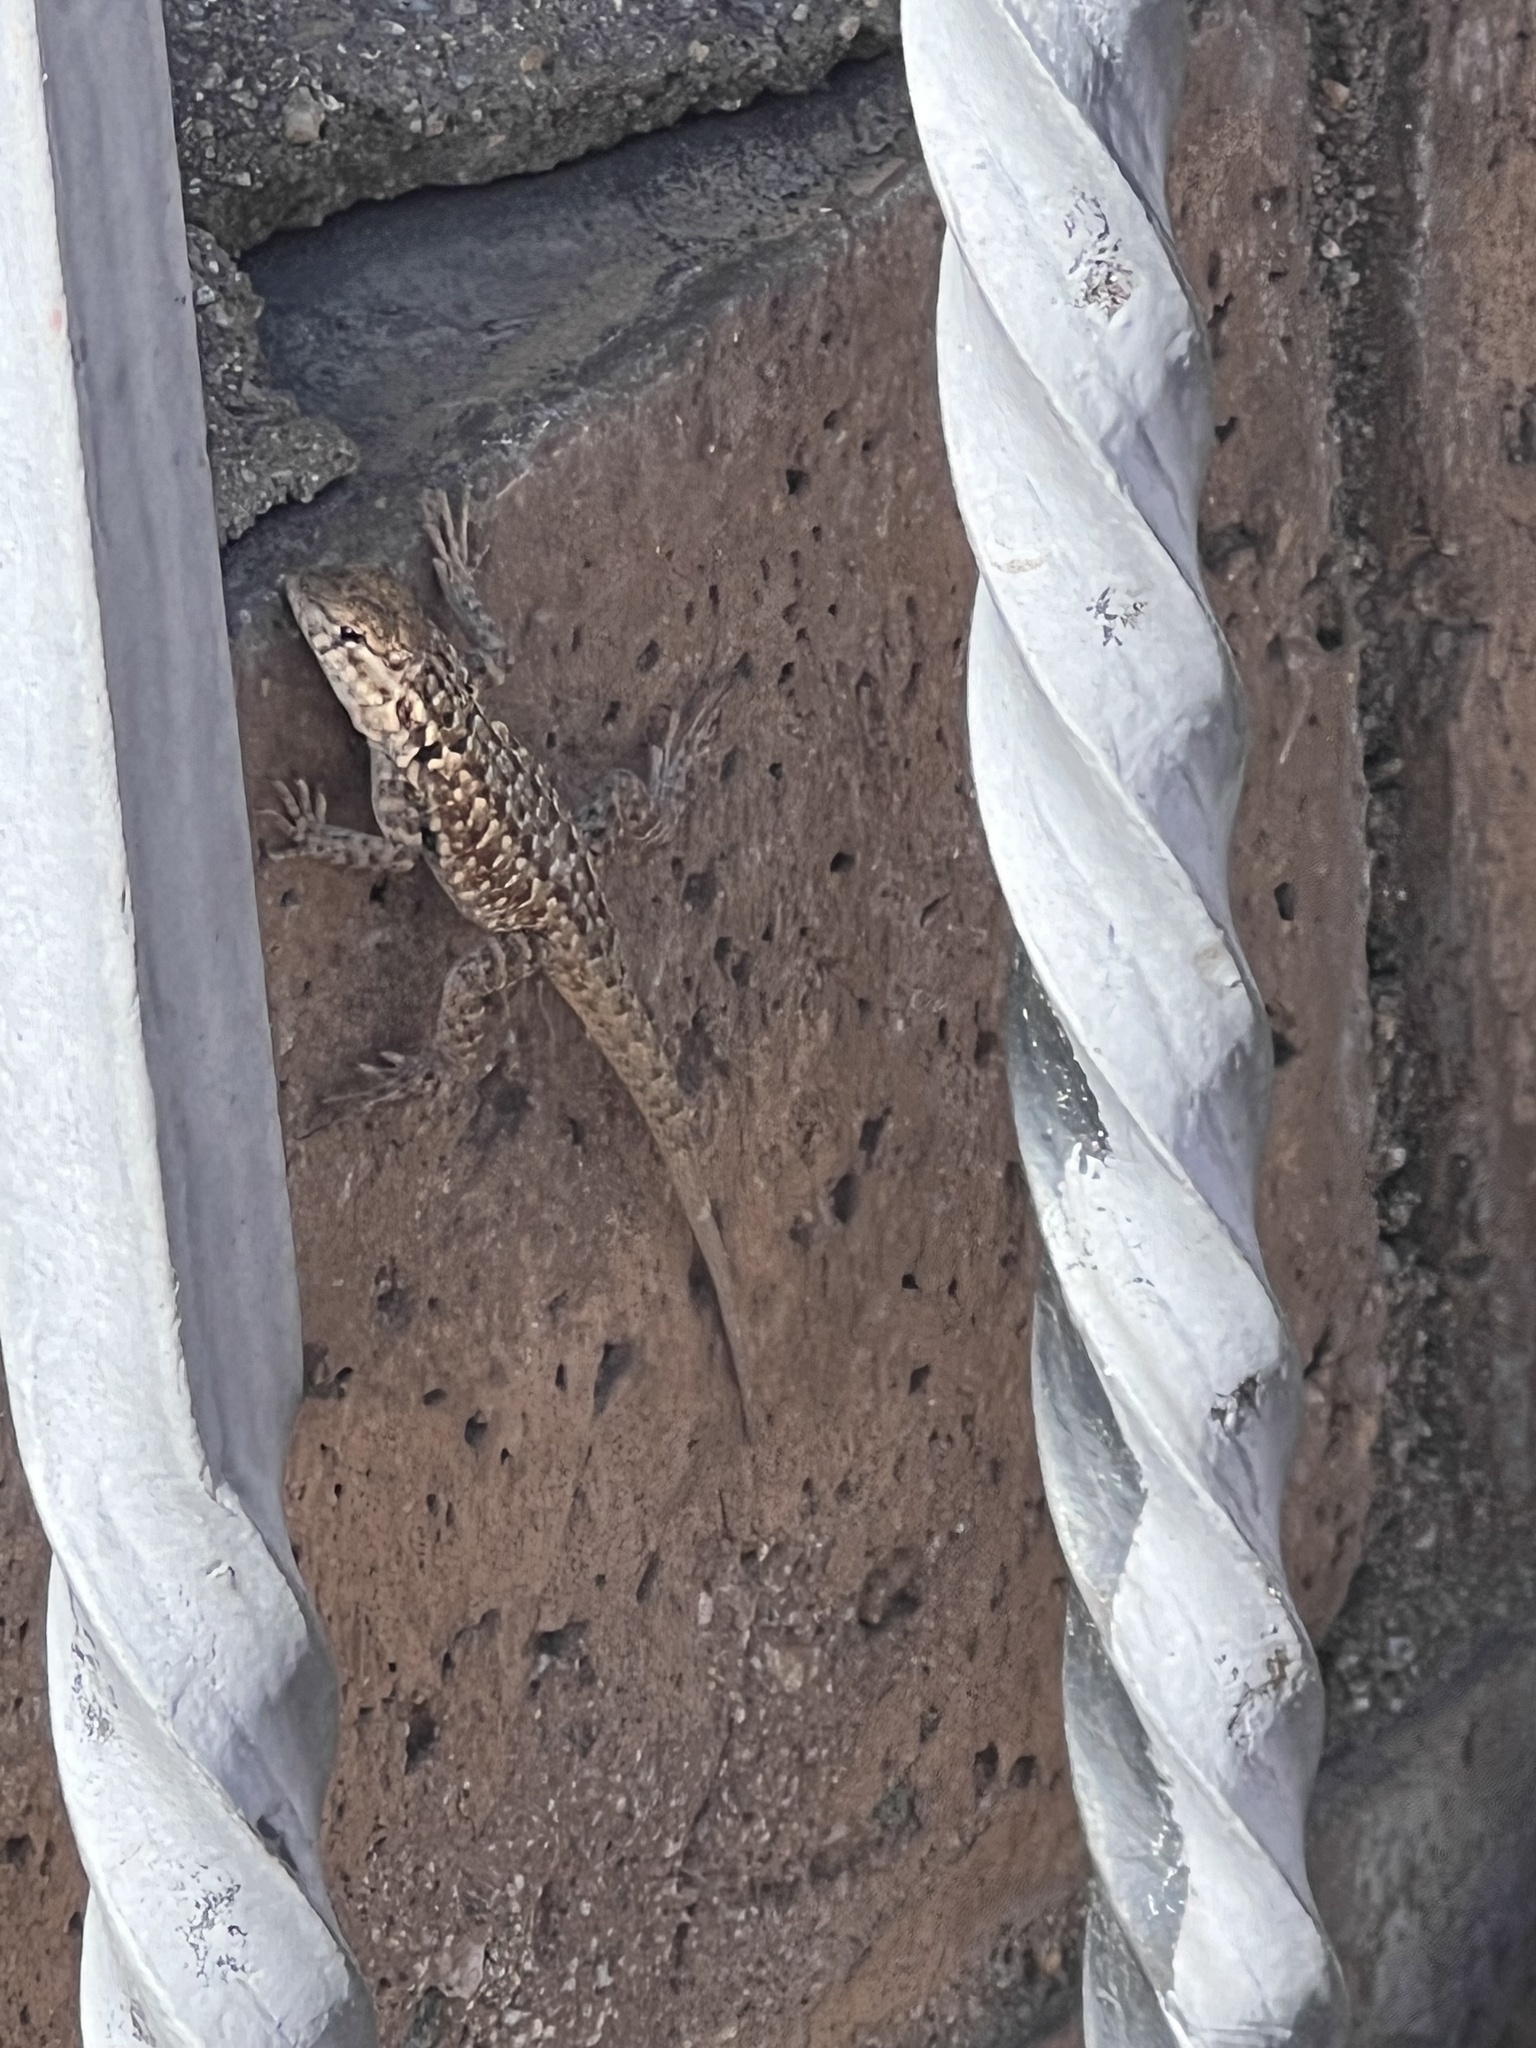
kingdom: Animalia
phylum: Chordata
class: Squamata
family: Phrynosomatidae
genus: Uta
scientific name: Uta stansburiana
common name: Side-blotched lizard
